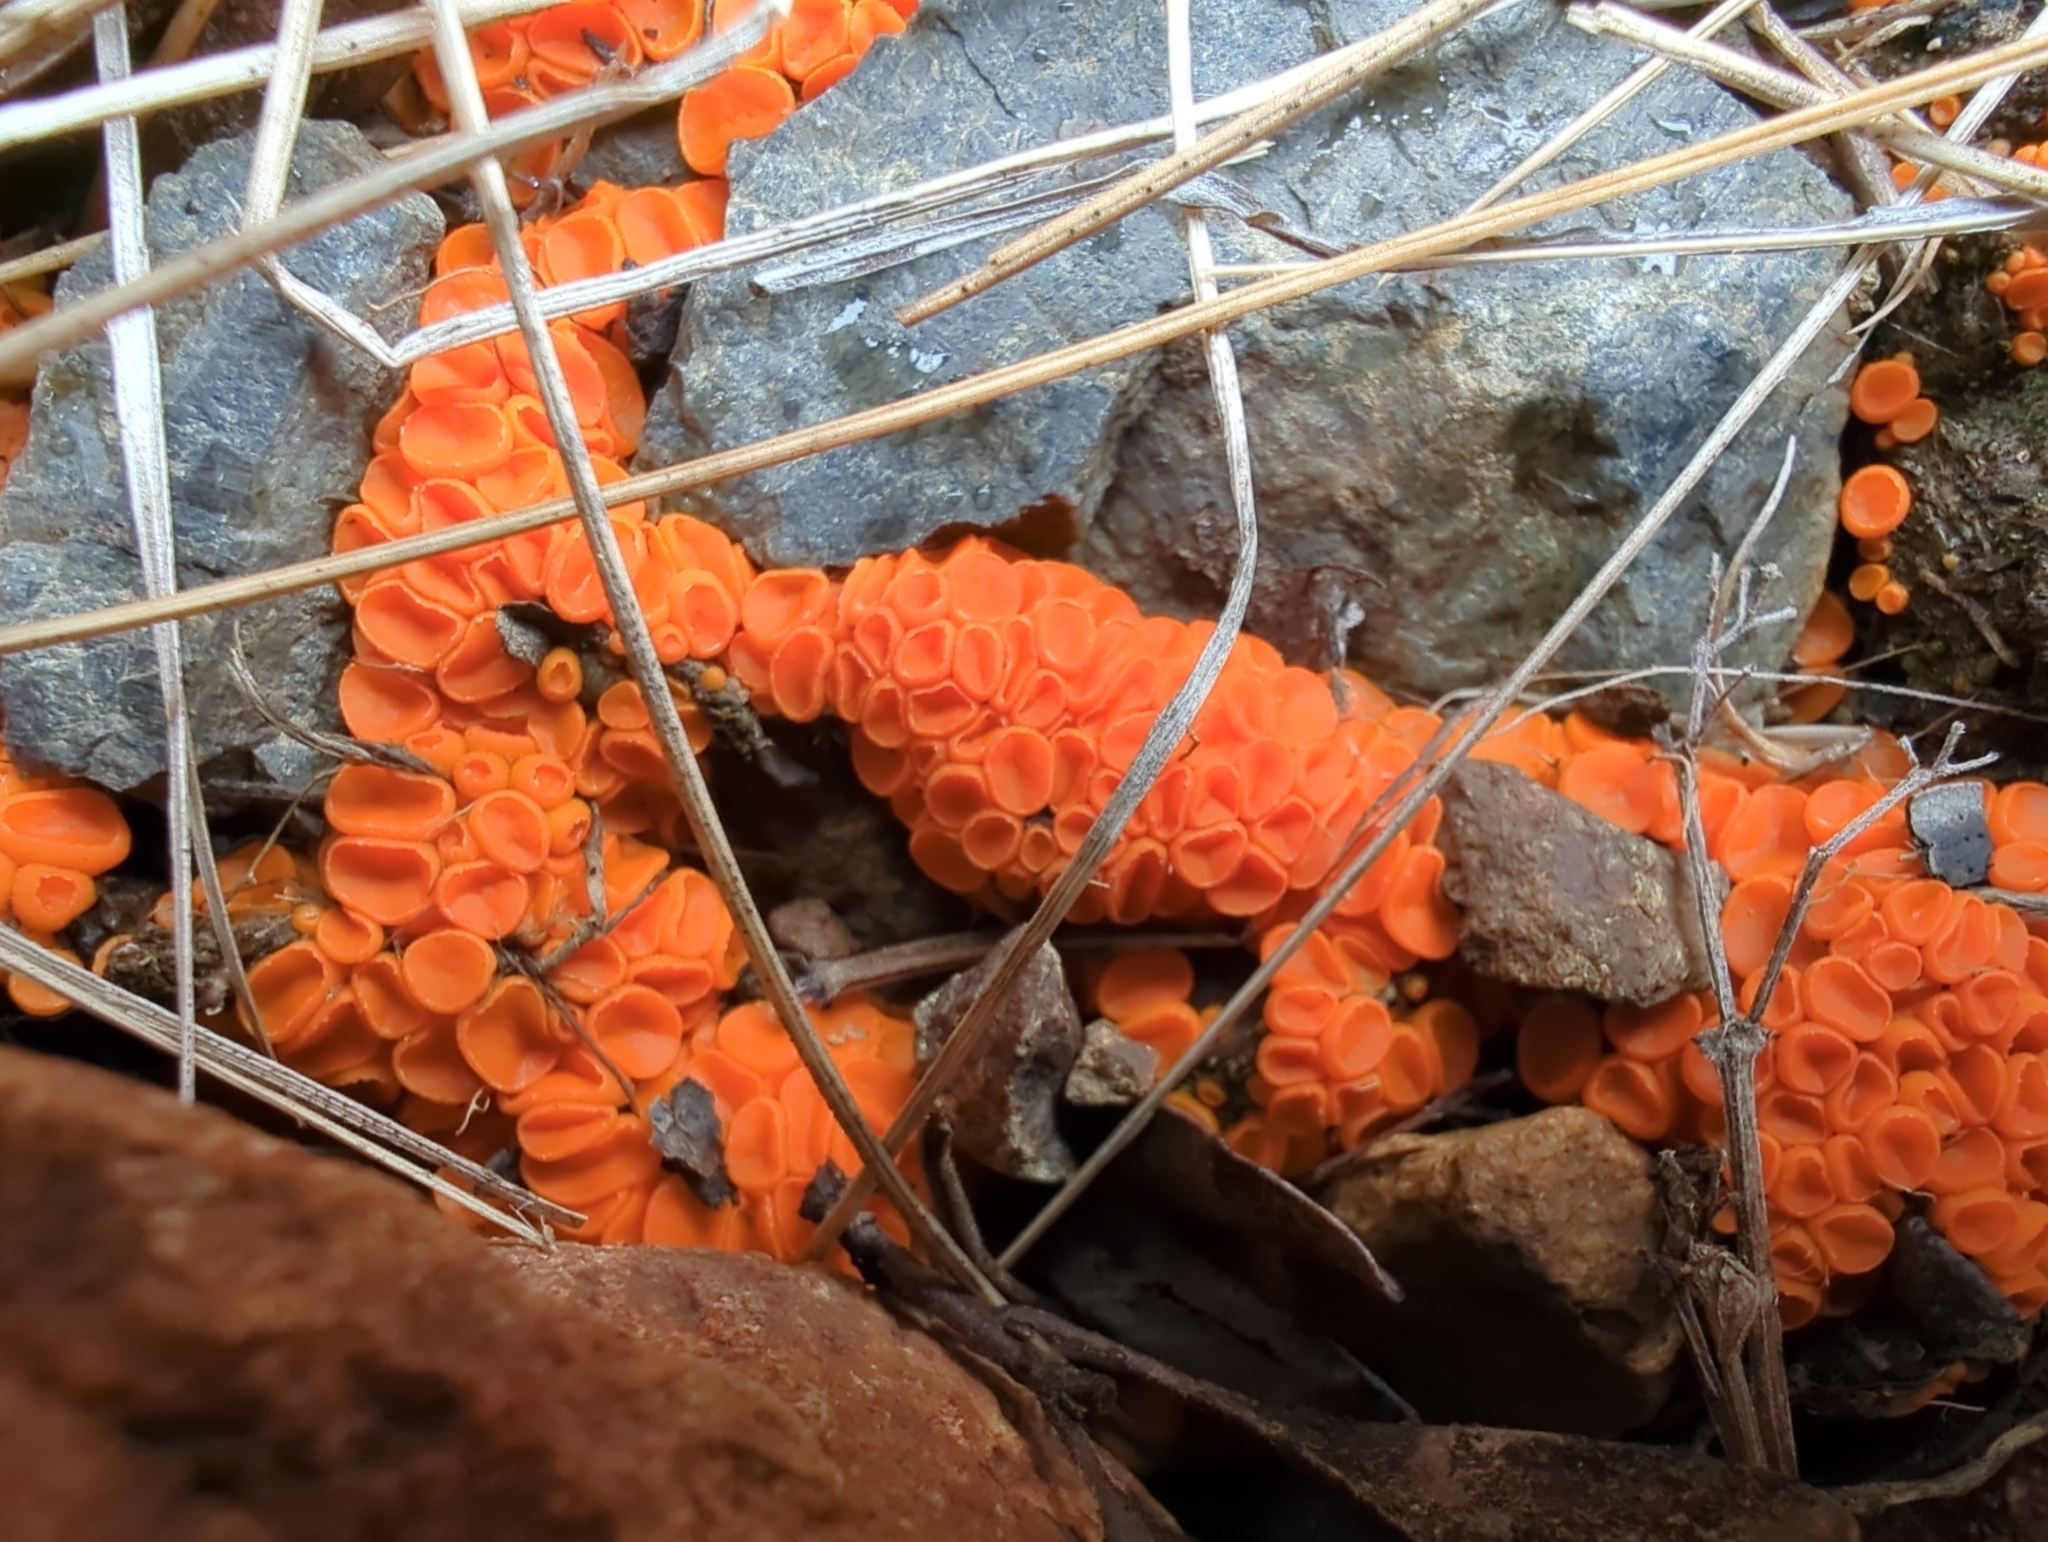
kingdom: Fungi
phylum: Ascomycota
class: Pezizomycetes
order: Pezizales
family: Pyronemataceae
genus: Byssonectria
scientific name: Byssonectria terrestris
